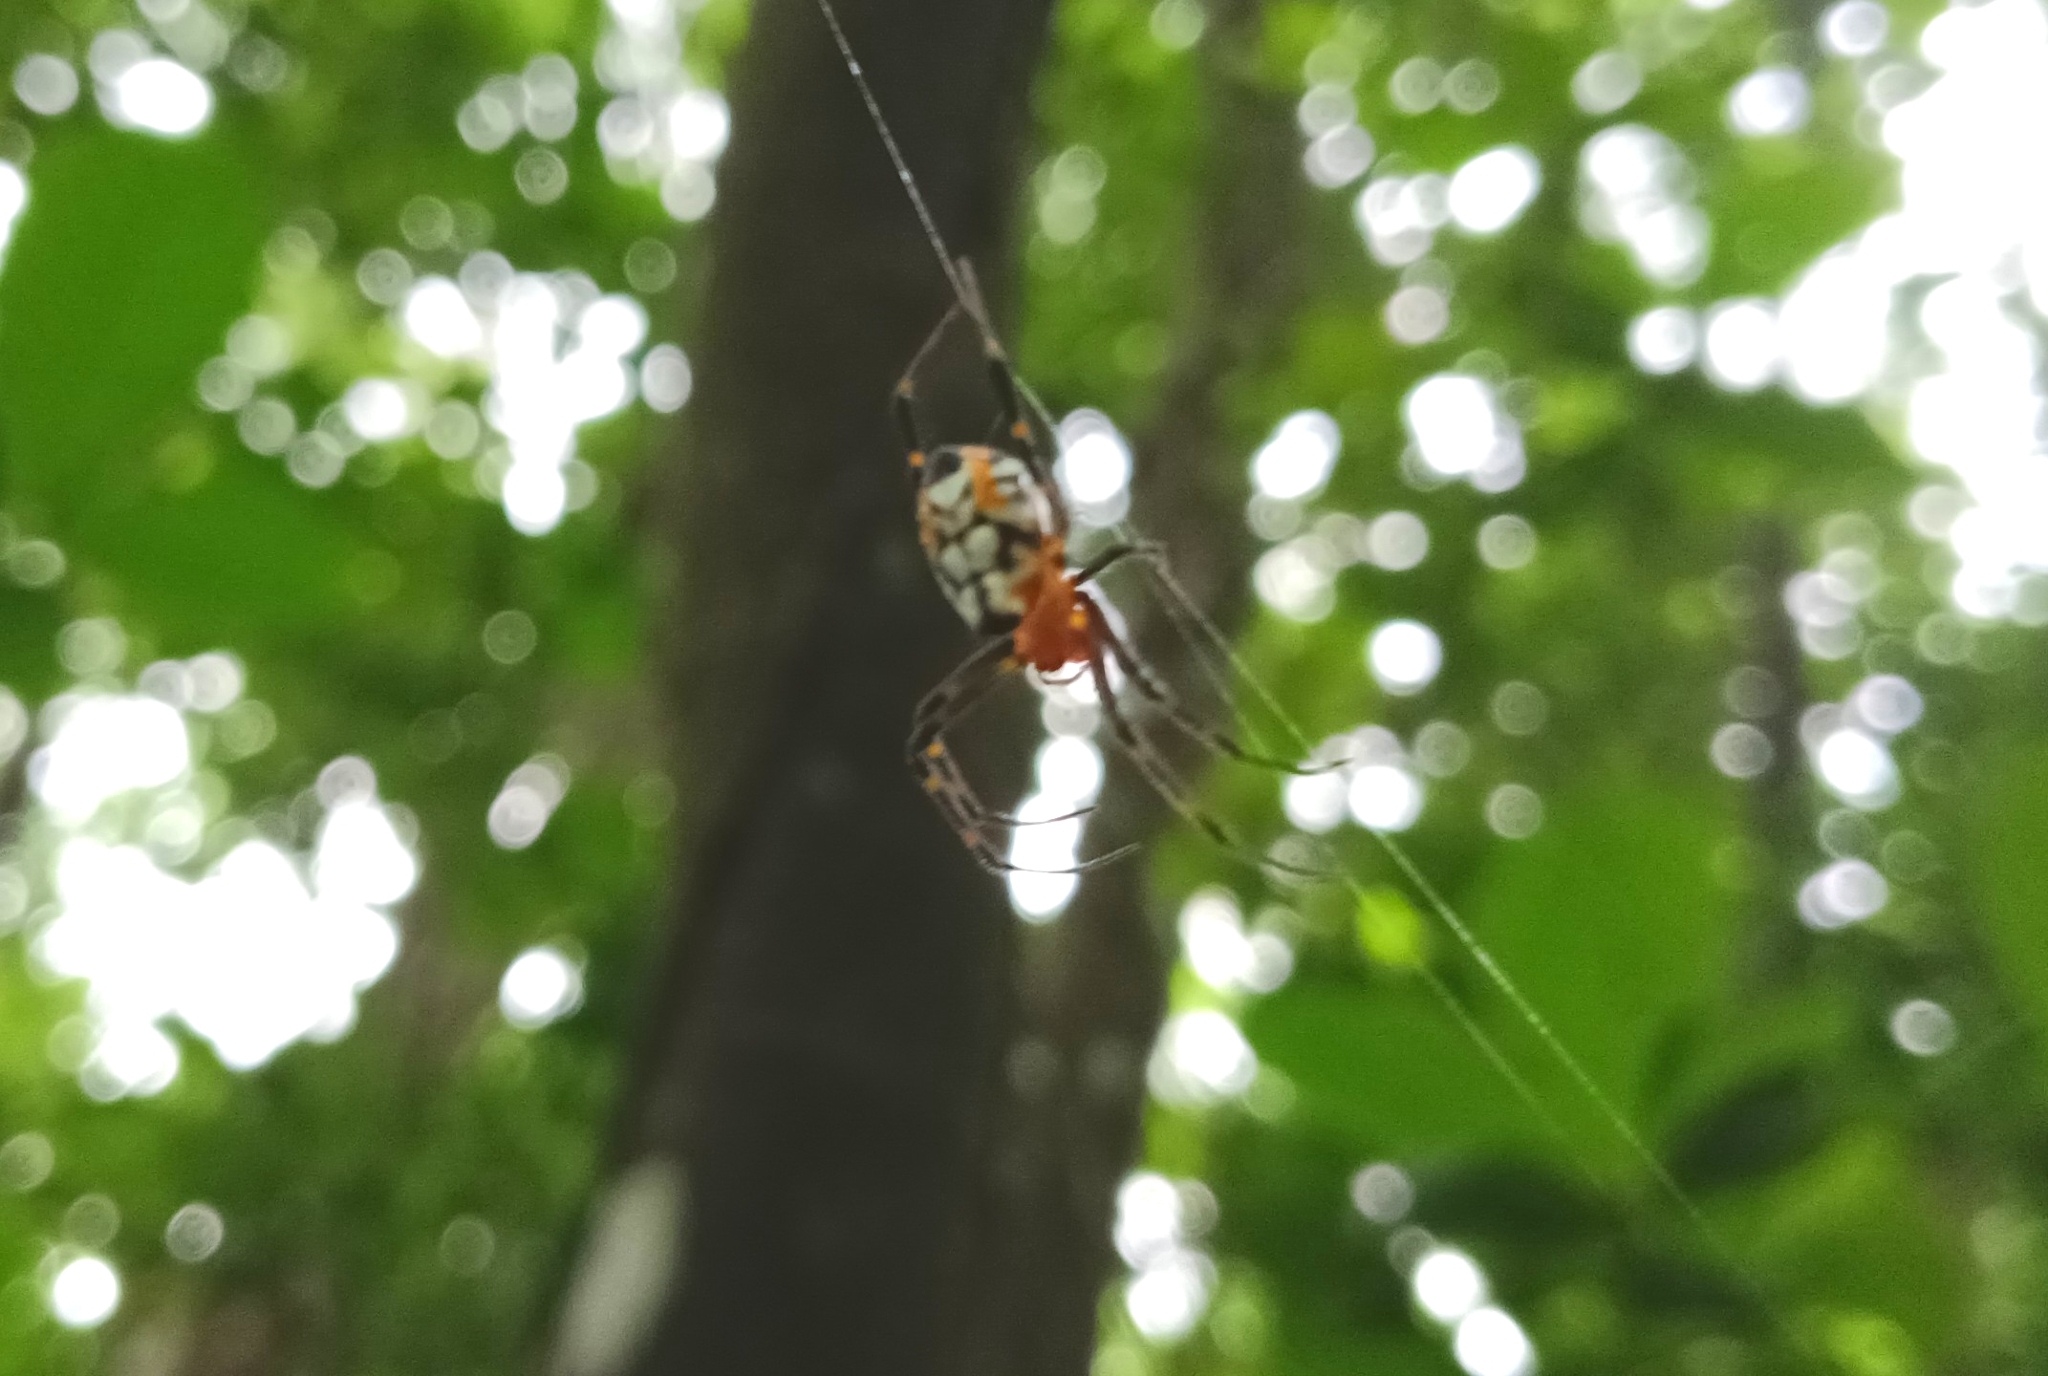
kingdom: Animalia
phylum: Arthropoda
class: Arachnida
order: Araneae
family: Tetragnathidae
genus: Leucauge
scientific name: Leucauge fastigata
